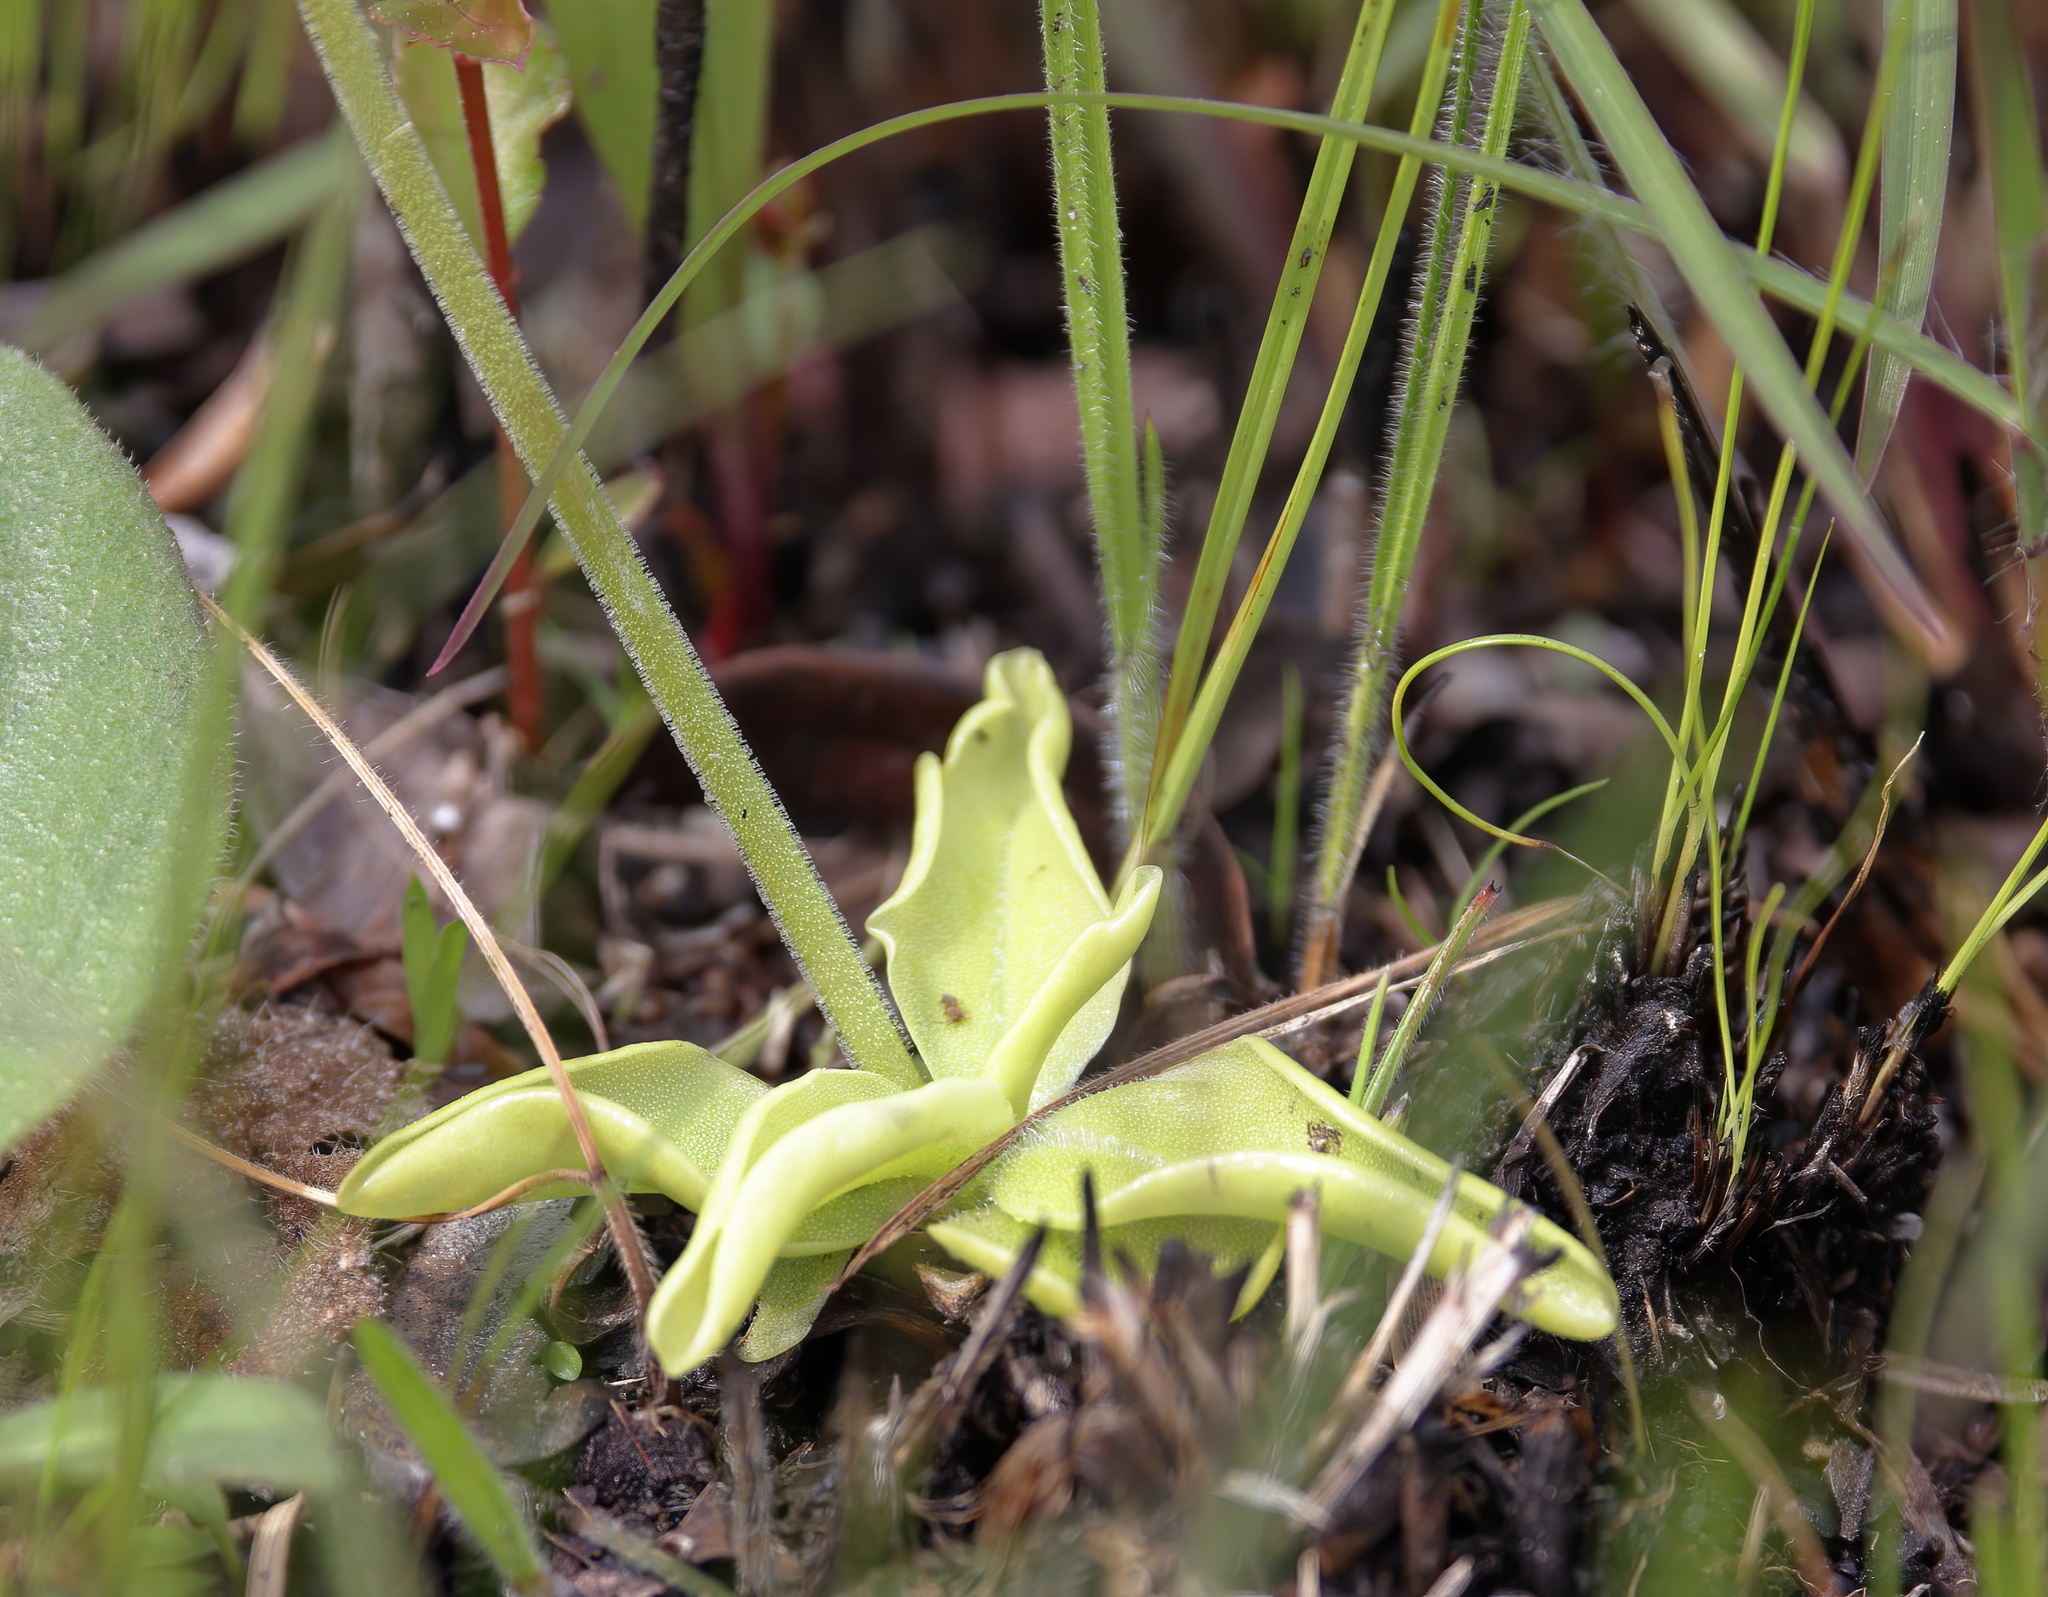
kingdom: Plantae
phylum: Tracheophyta
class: Magnoliopsida
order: Lamiales
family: Lentibulariaceae
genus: Pinguicula
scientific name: Pinguicula lutea
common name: Yellow butterwort
